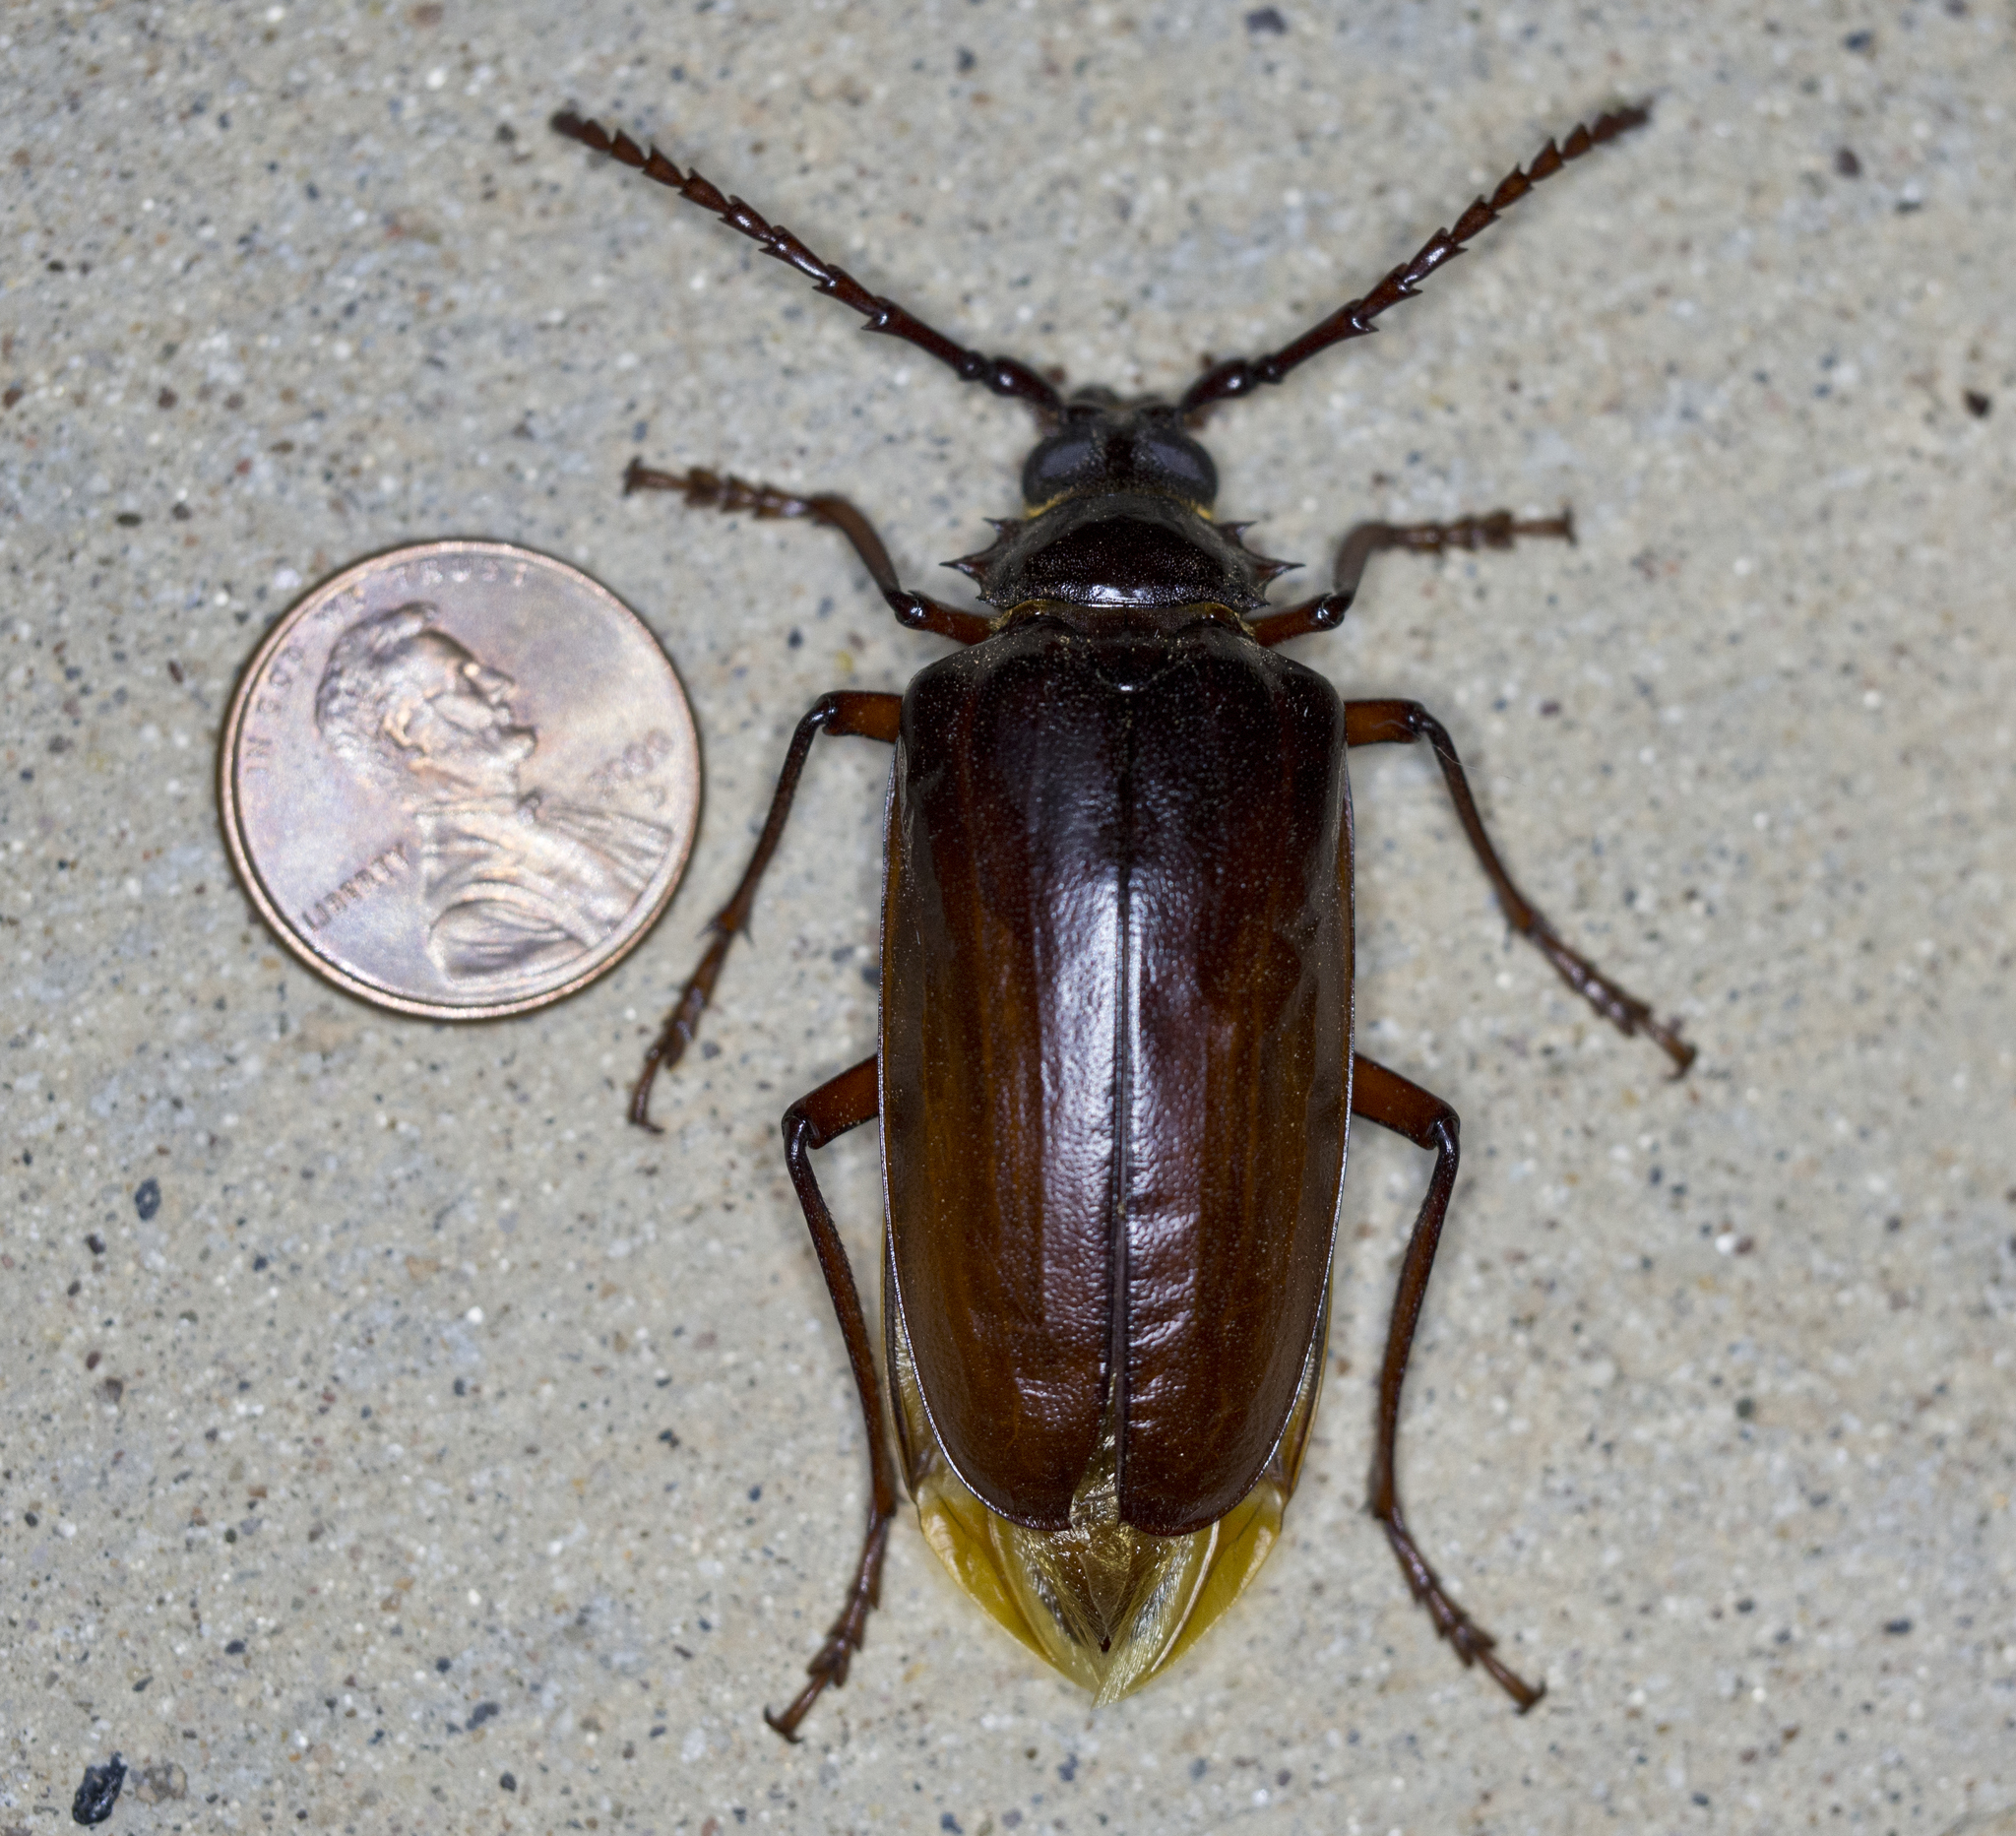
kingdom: Animalia
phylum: Arthropoda
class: Insecta
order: Coleoptera
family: Cerambycidae
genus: Prionus
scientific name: Prionus californicus
